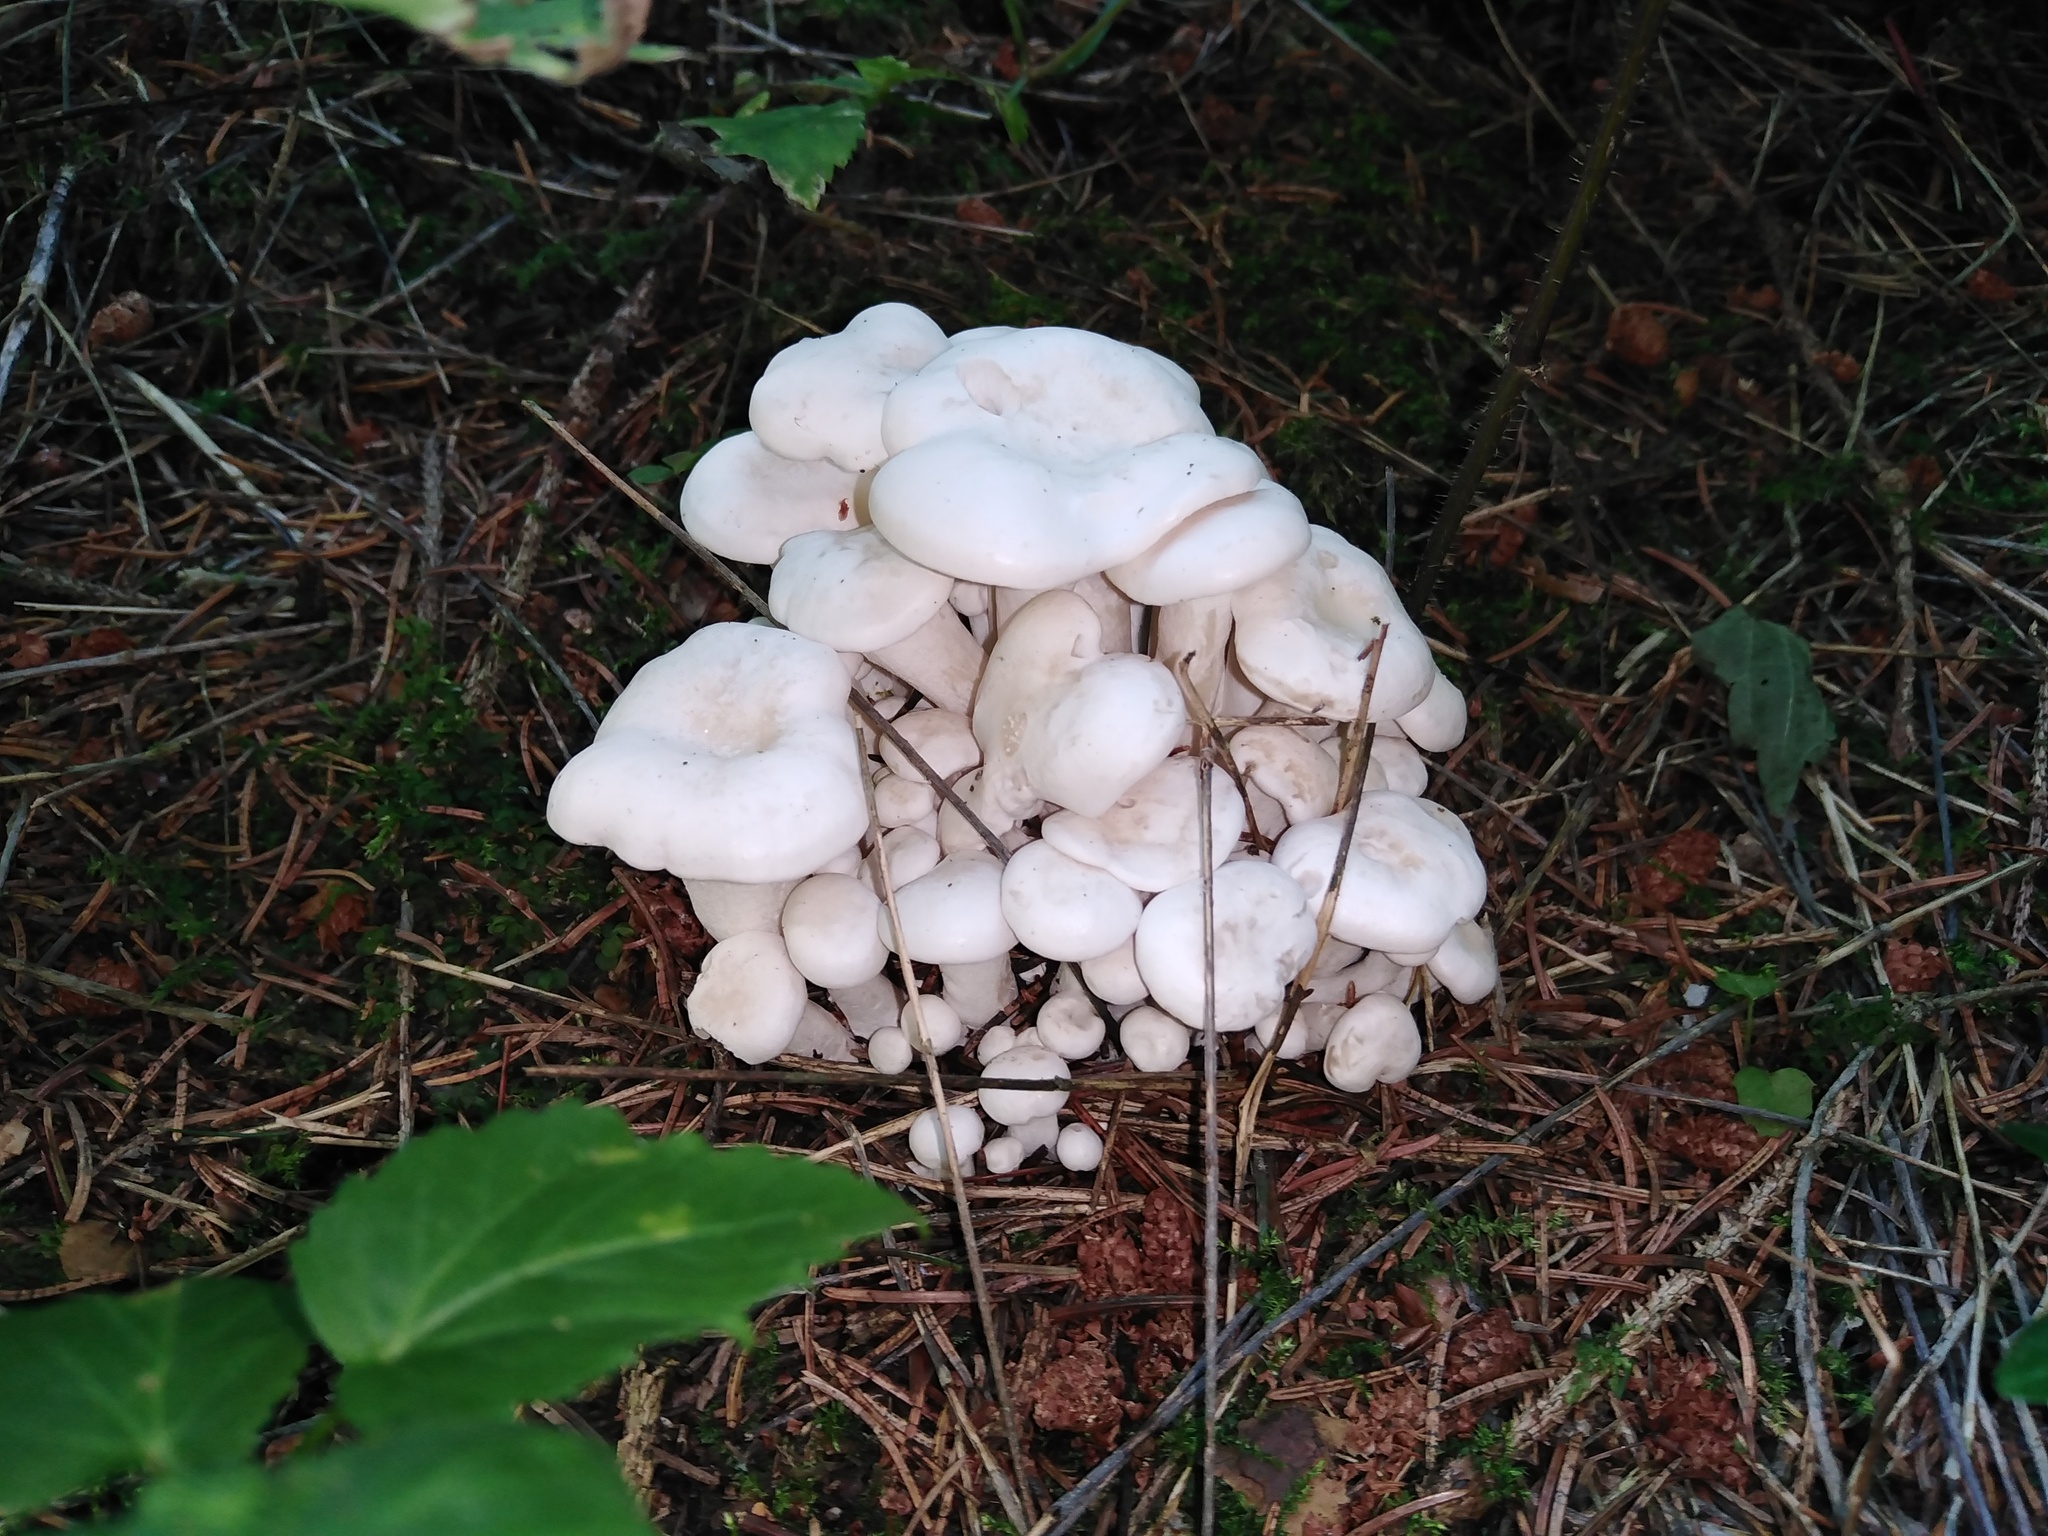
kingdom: Fungi
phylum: Basidiomycota
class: Agaricomycetes
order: Agaricales
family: Tricholomataceae
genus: Leucocybe
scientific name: Leucocybe connata
